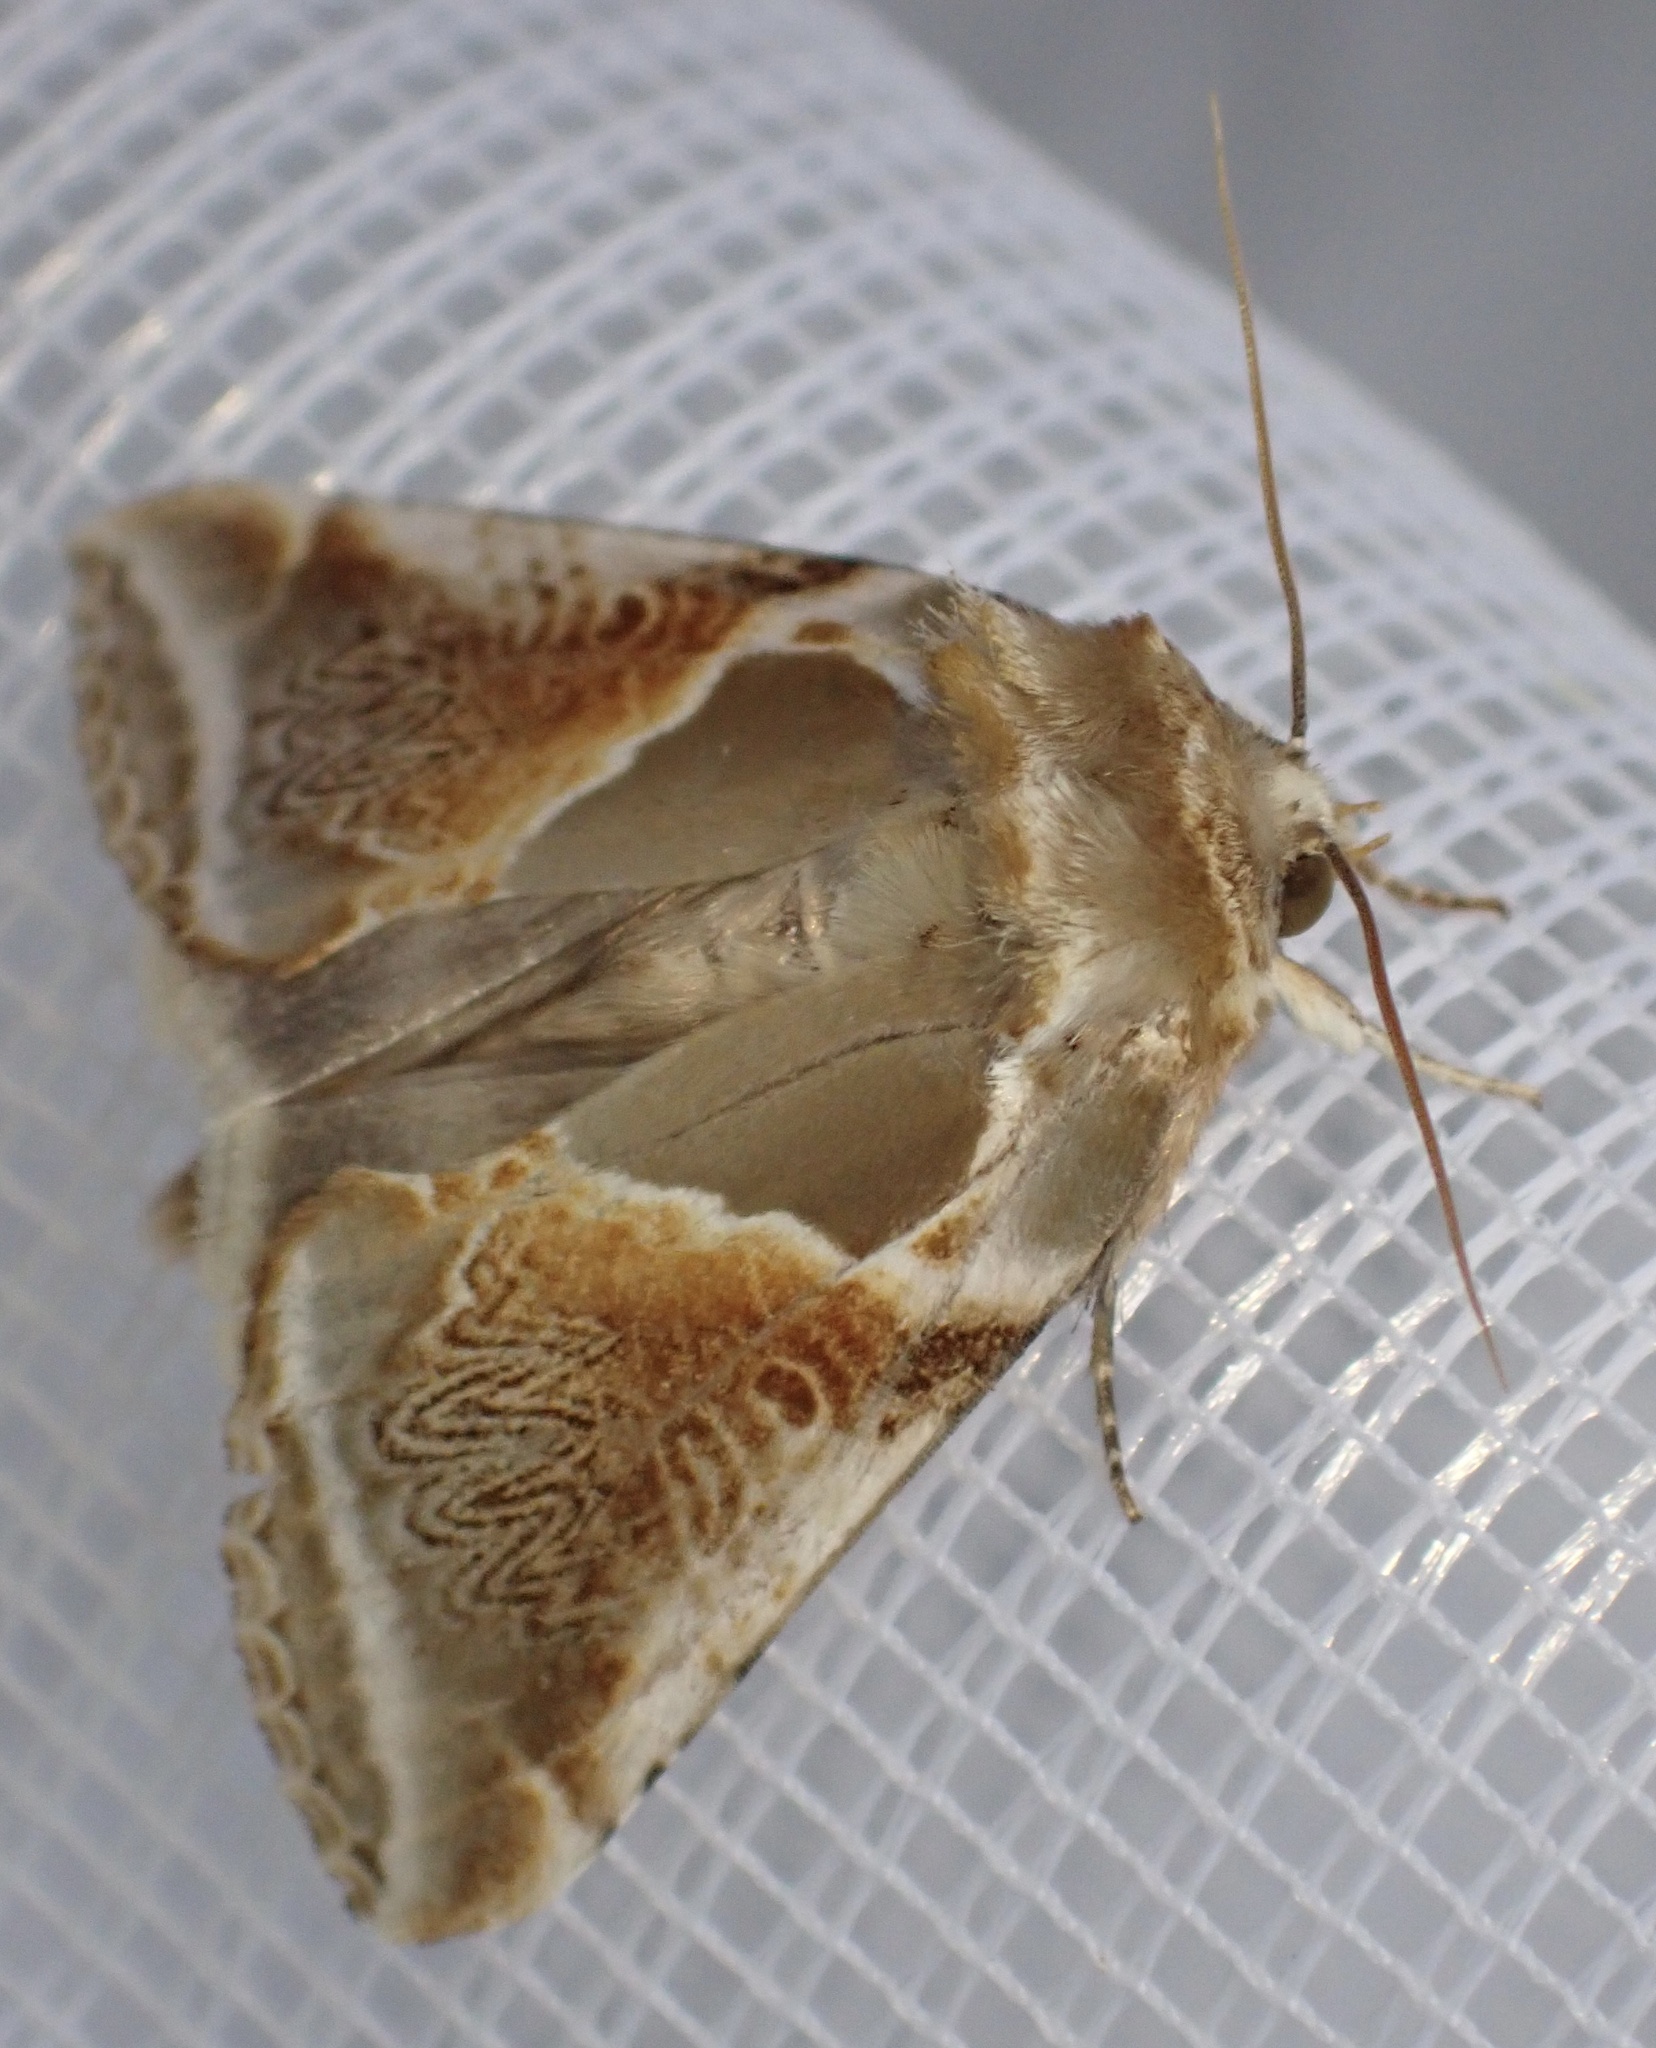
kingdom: Animalia
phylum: Arthropoda
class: Insecta
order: Lepidoptera
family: Drepanidae
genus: Habrosyne
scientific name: Habrosyne pyritoides
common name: Buff arches
